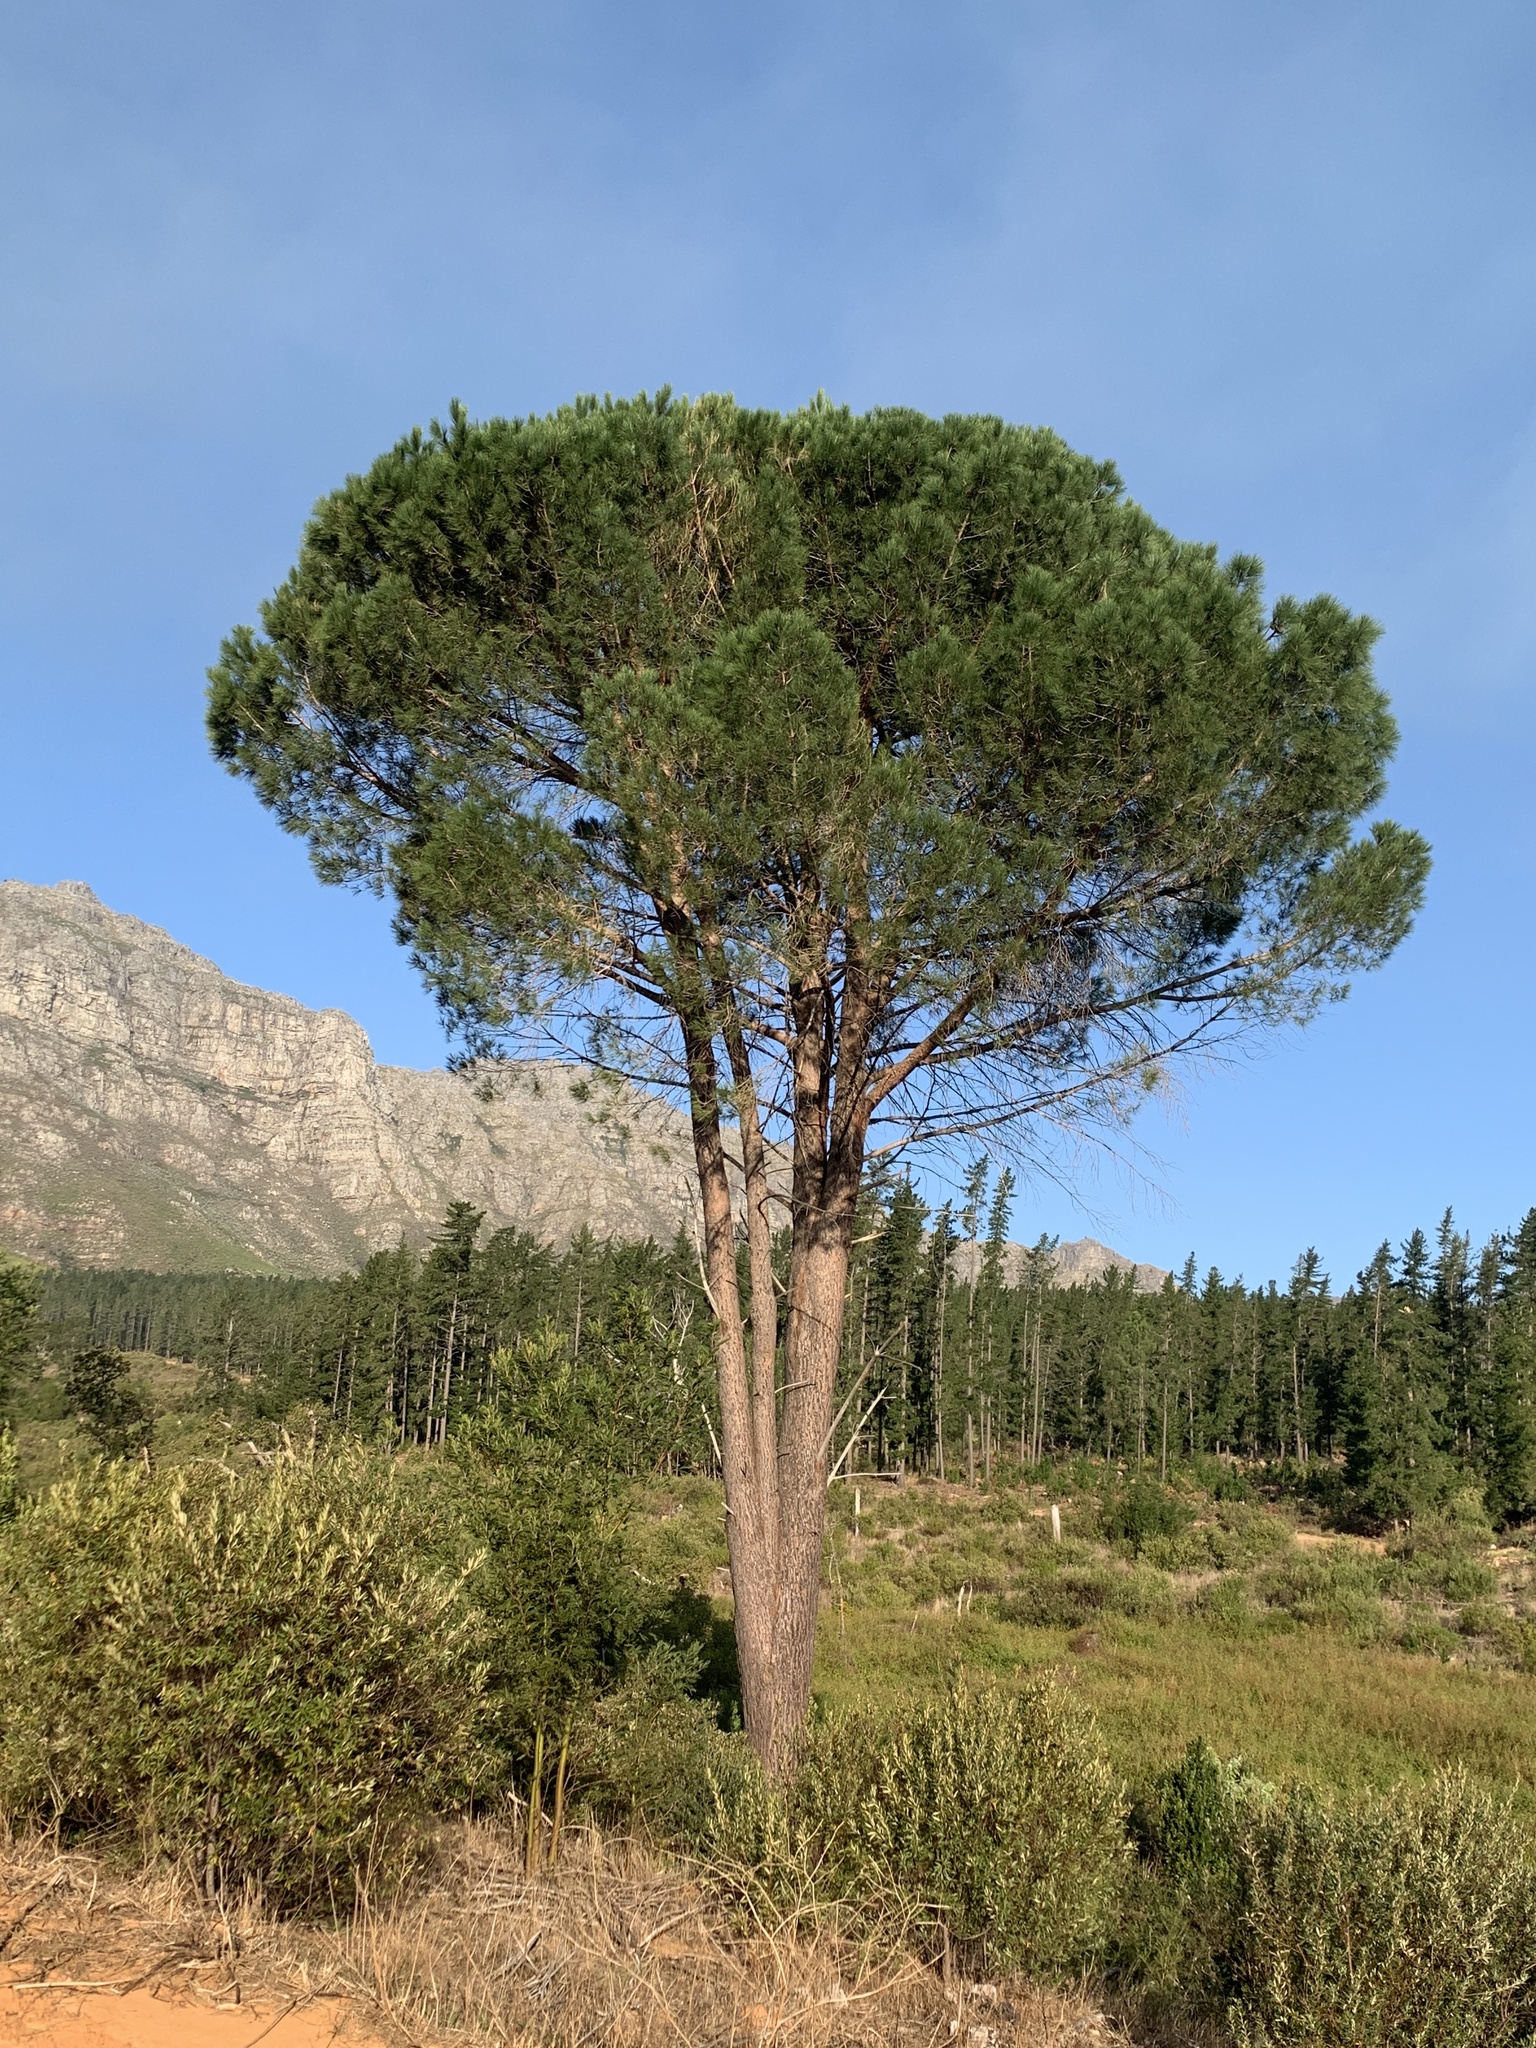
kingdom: Plantae
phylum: Tracheophyta
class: Pinopsida
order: Pinales
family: Pinaceae
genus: Pinus
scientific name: Pinus pinea
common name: Italian stone pine
